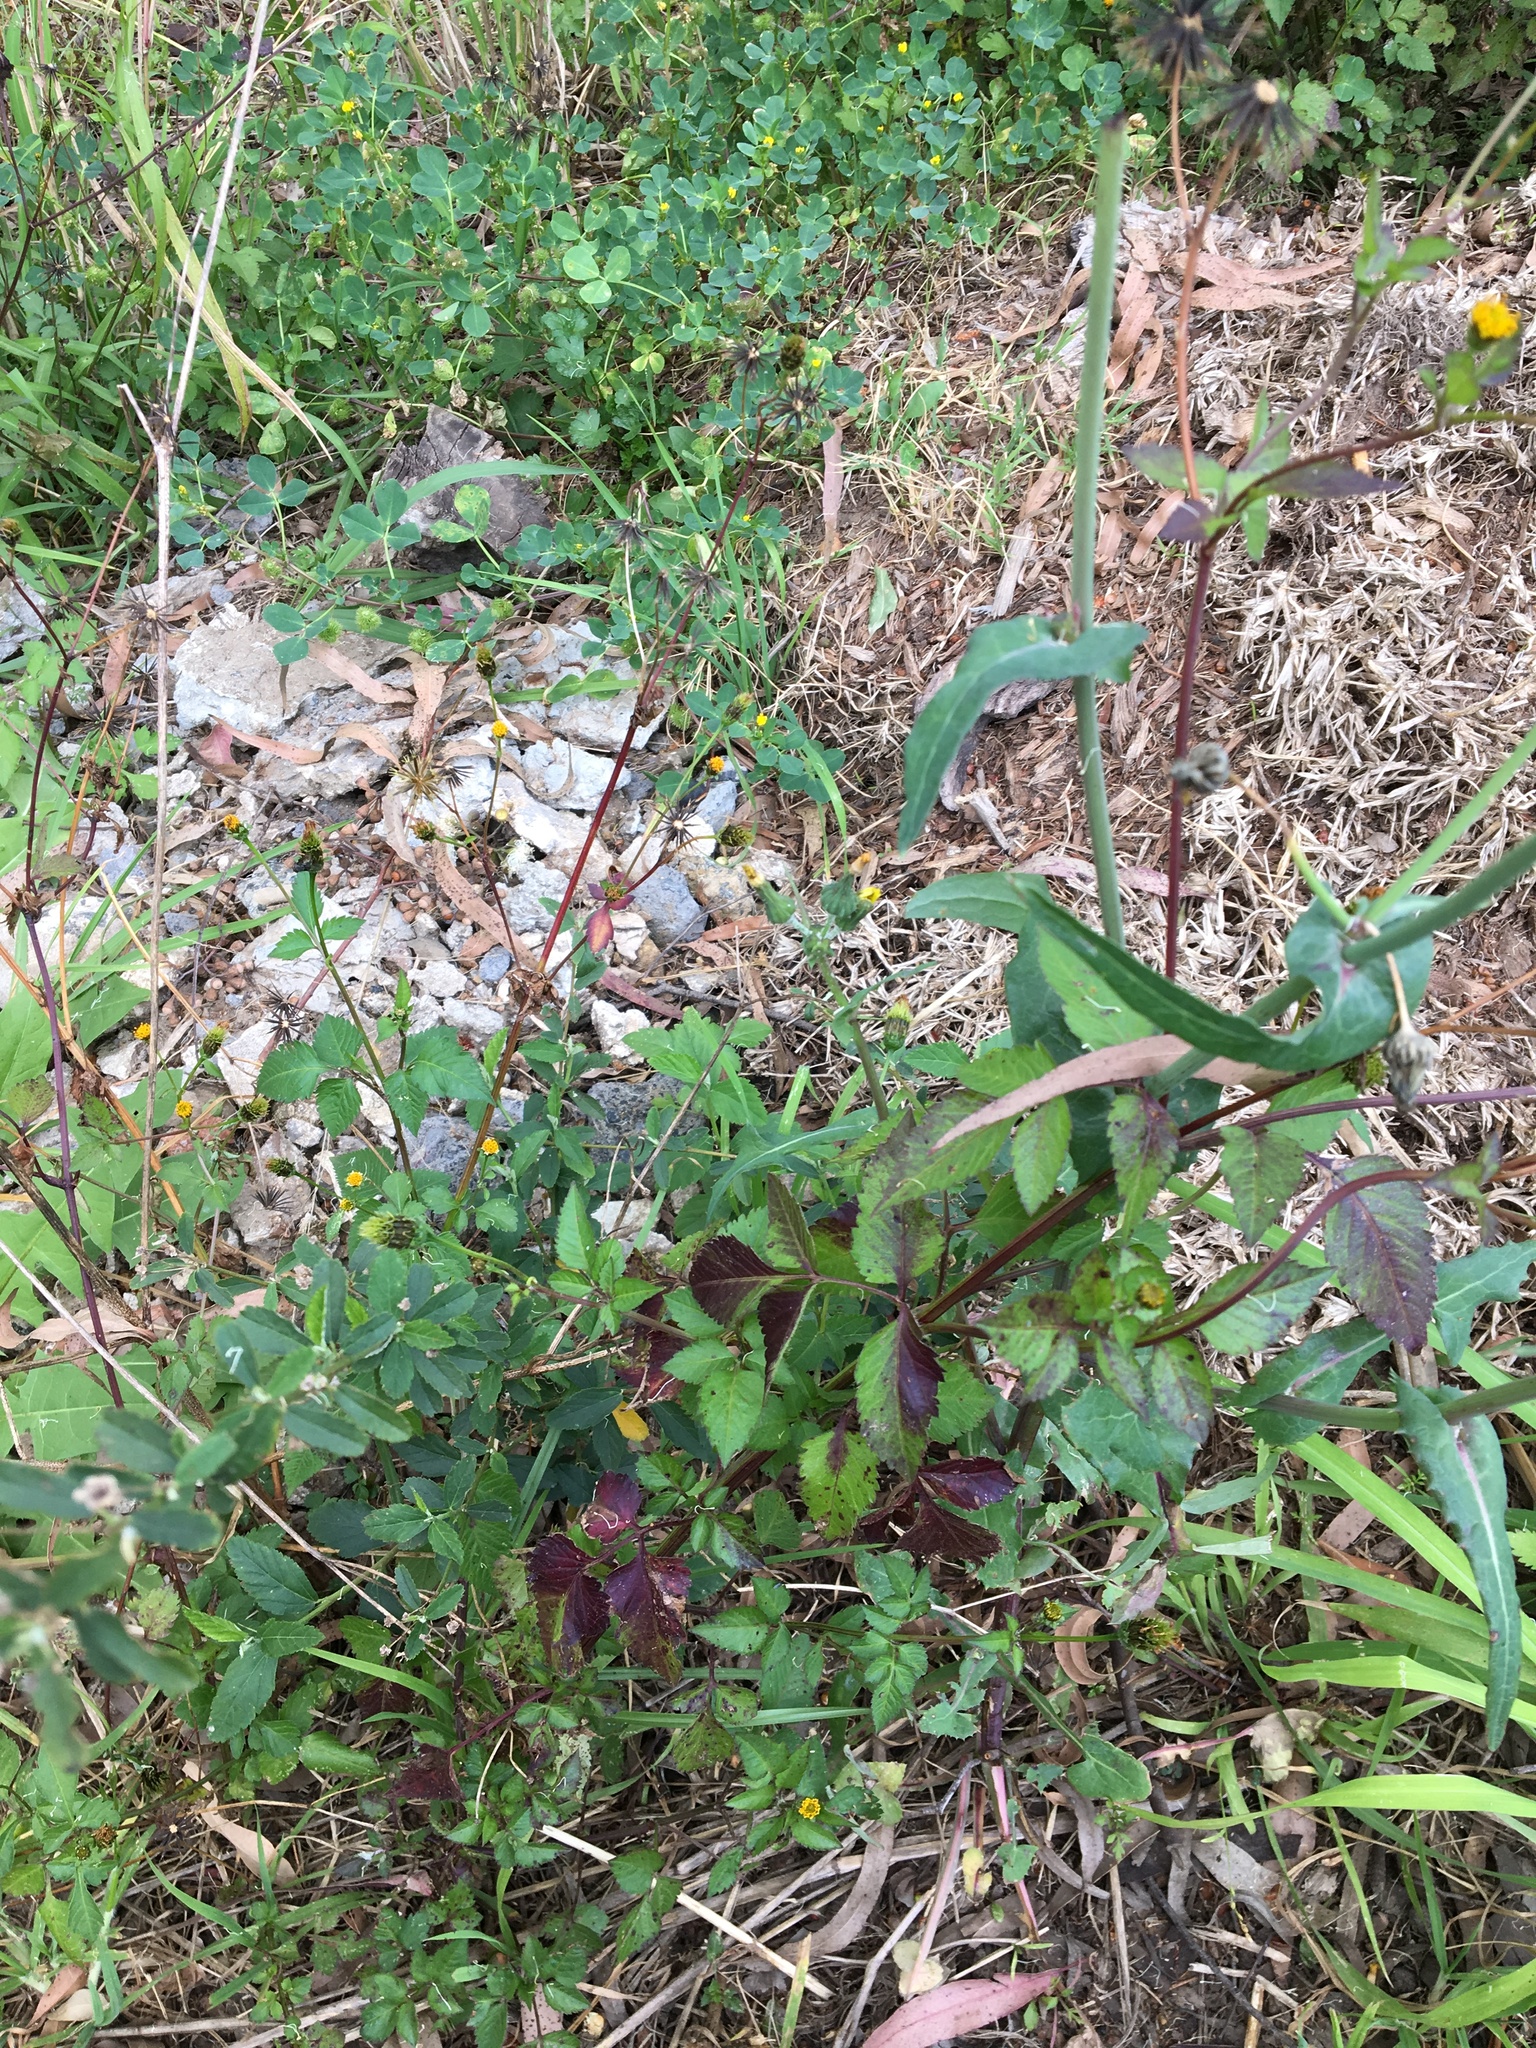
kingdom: Plantae
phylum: Tracheophyta
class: Magnoliopsida
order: Asterales
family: Asteraceae
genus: Bidens
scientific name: Bidens pilosa
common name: Black-jack
